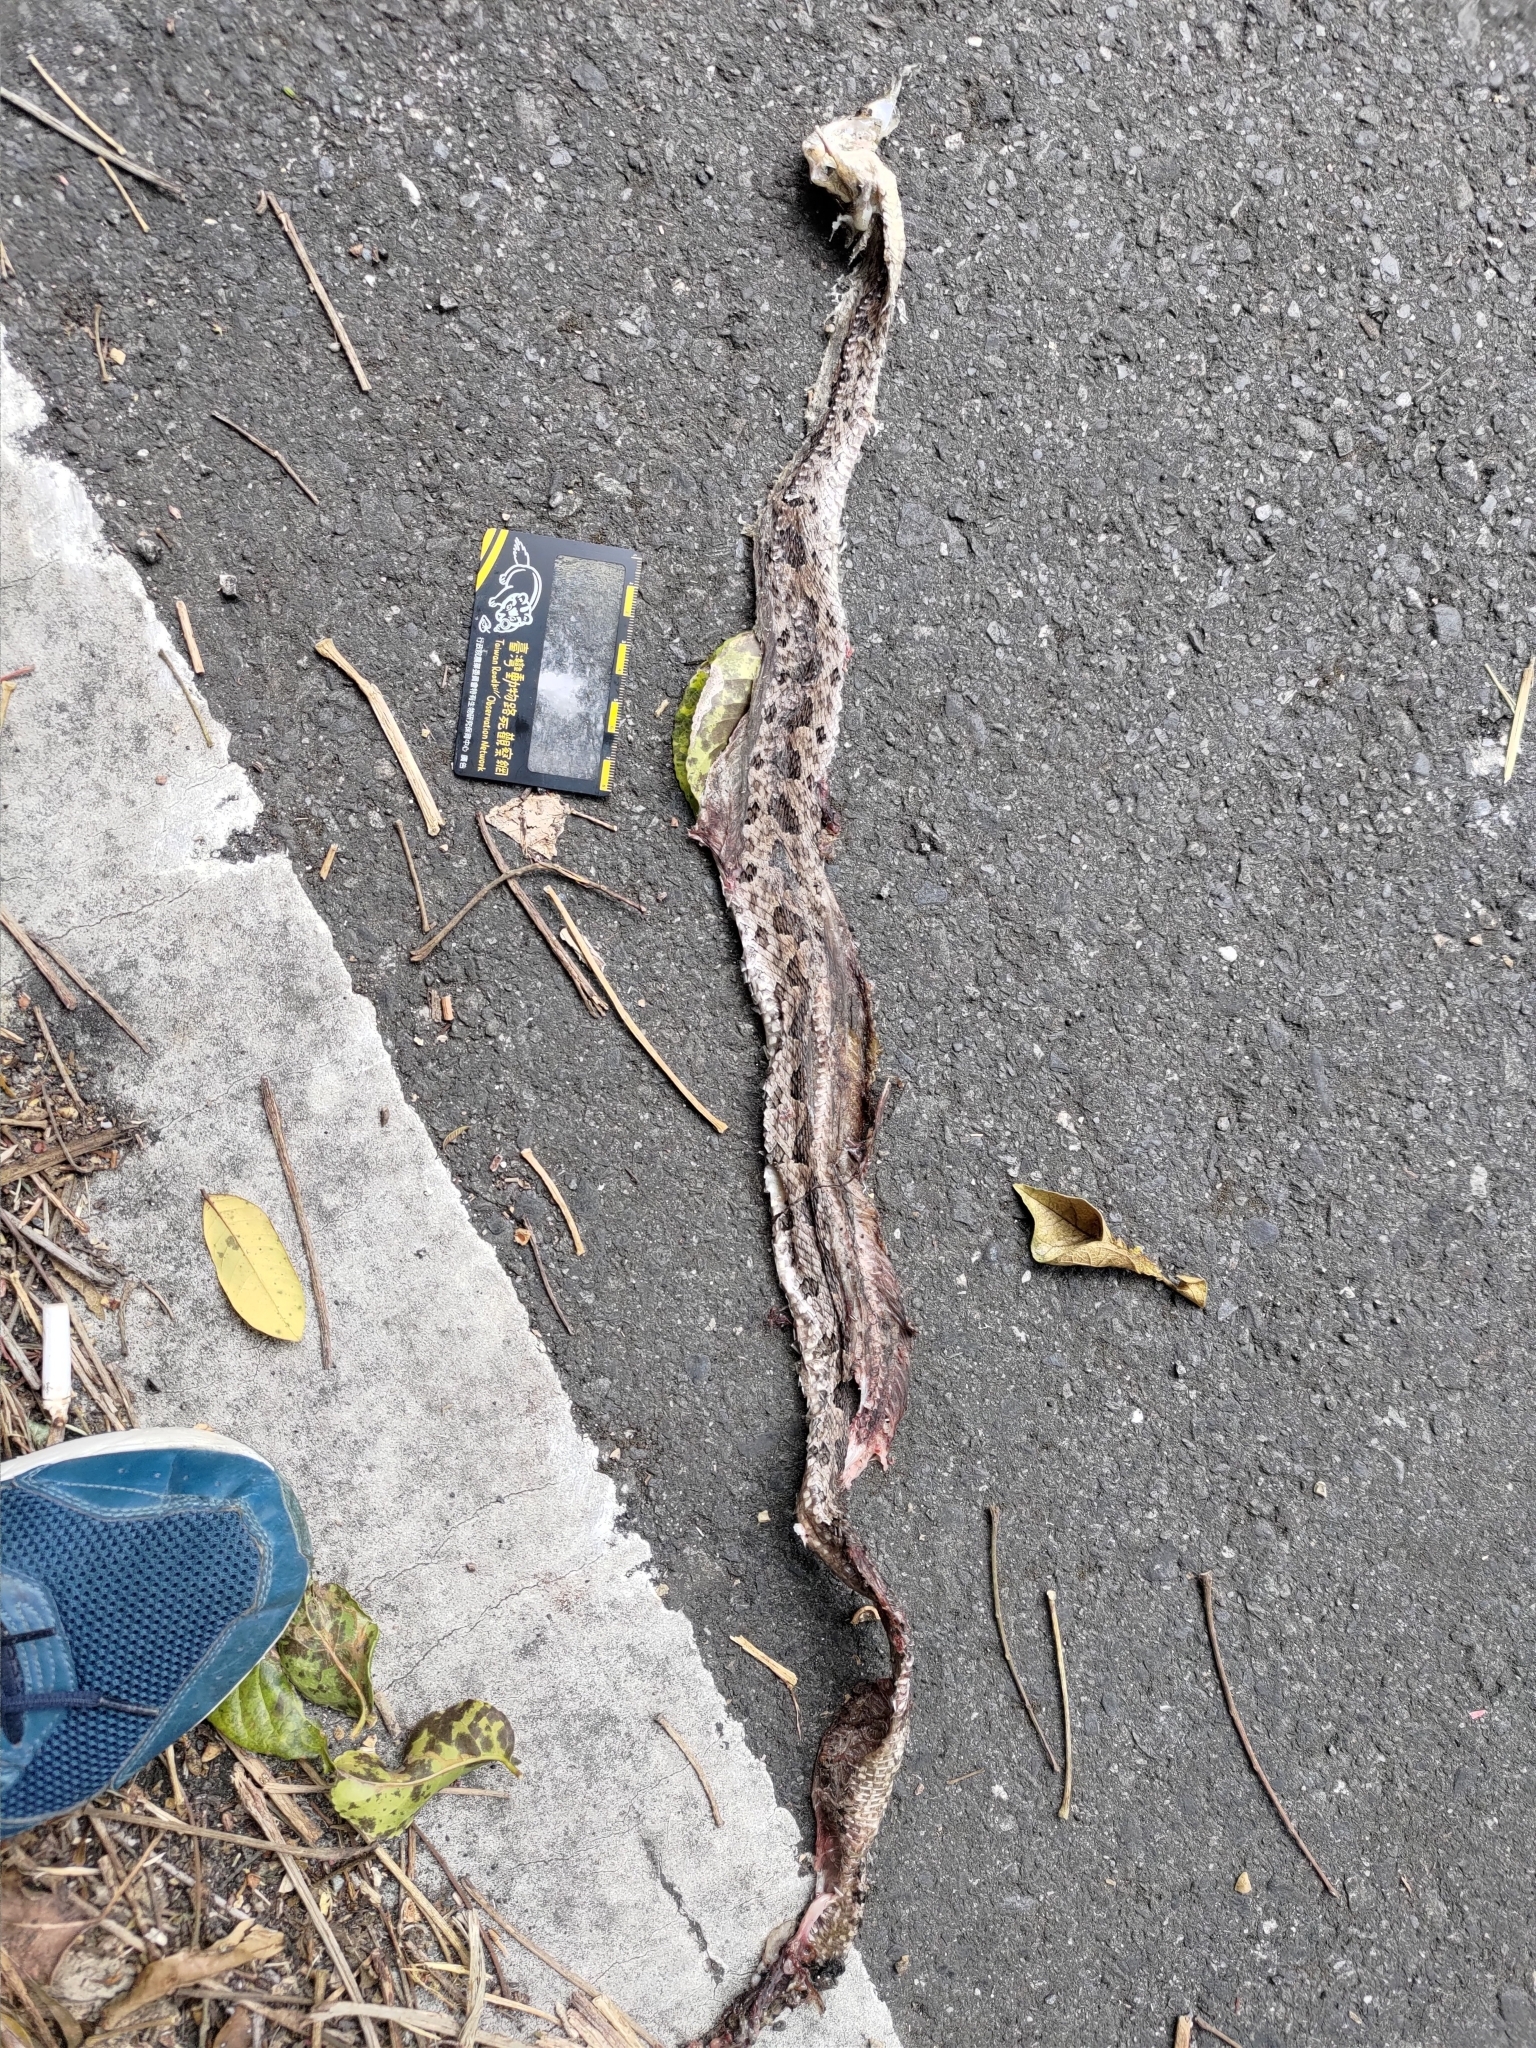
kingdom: Animalia
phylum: Chordata
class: Squamata
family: Viperidae
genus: Protobothrops
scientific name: Protobothrops mucrosquamatus
